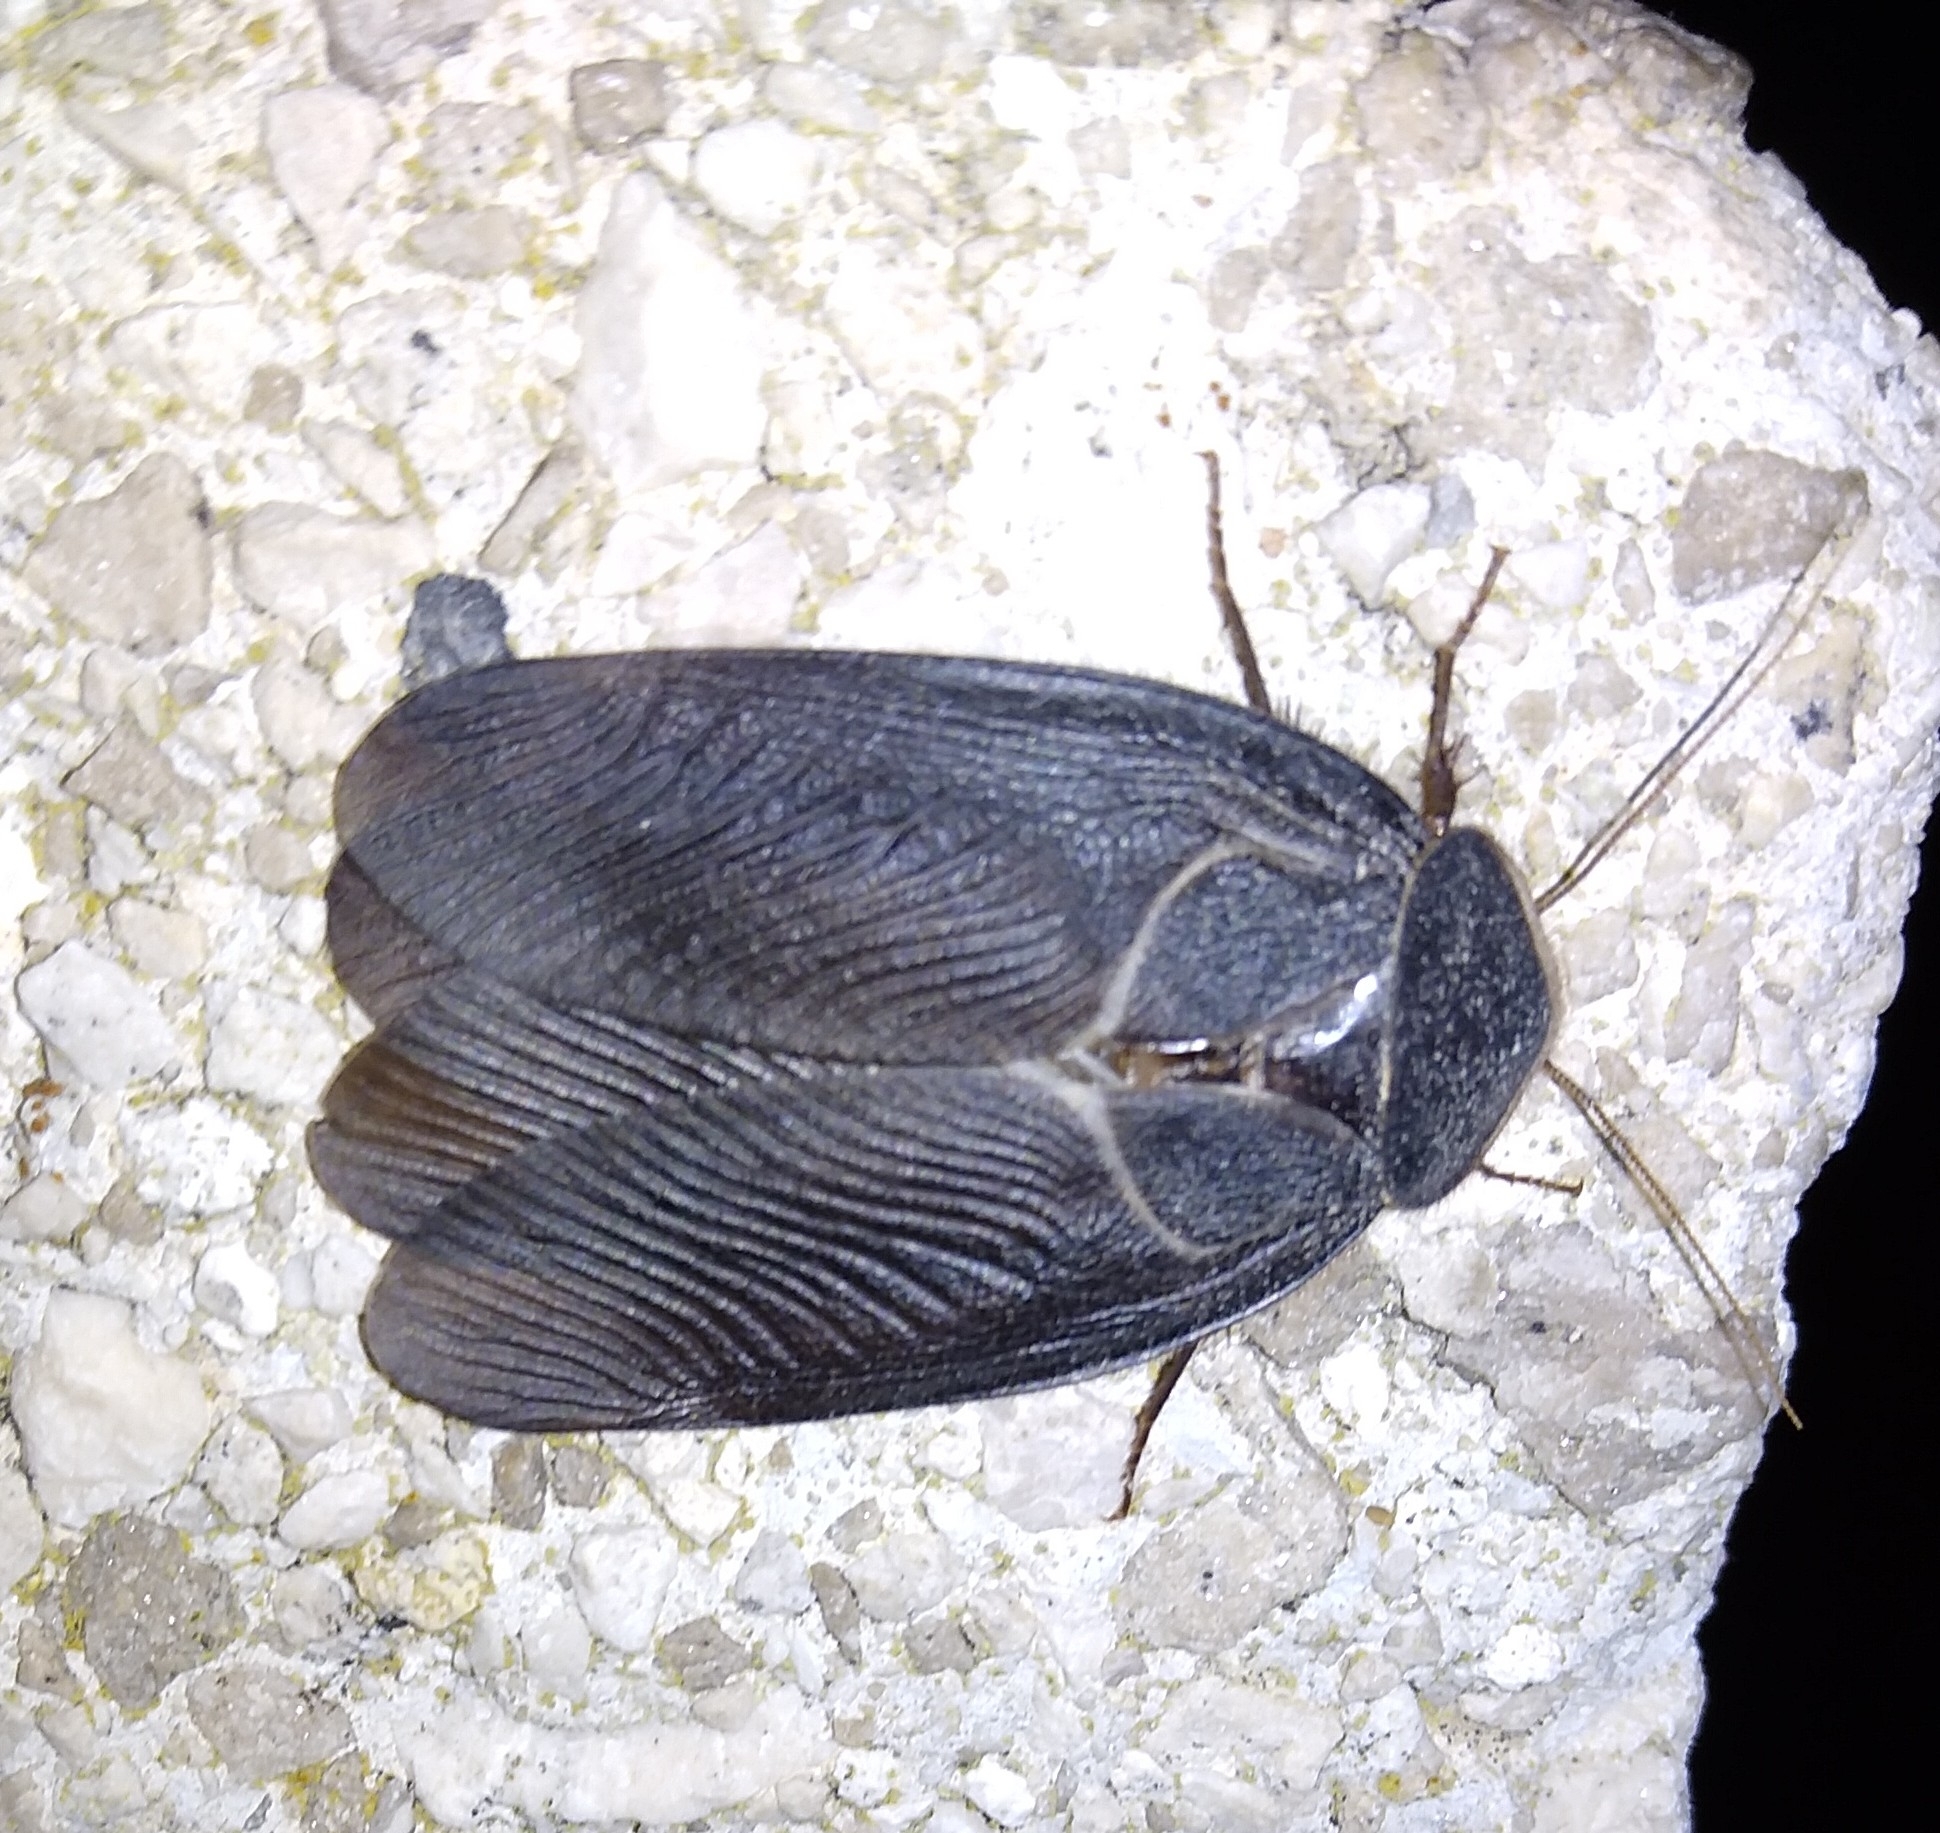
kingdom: Animalia
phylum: Arthropoda
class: Insecta
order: Blattodea
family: Corydiidae
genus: Polyphaga
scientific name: Polyphaga aegyptiaca
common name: Egyptian cockroach
